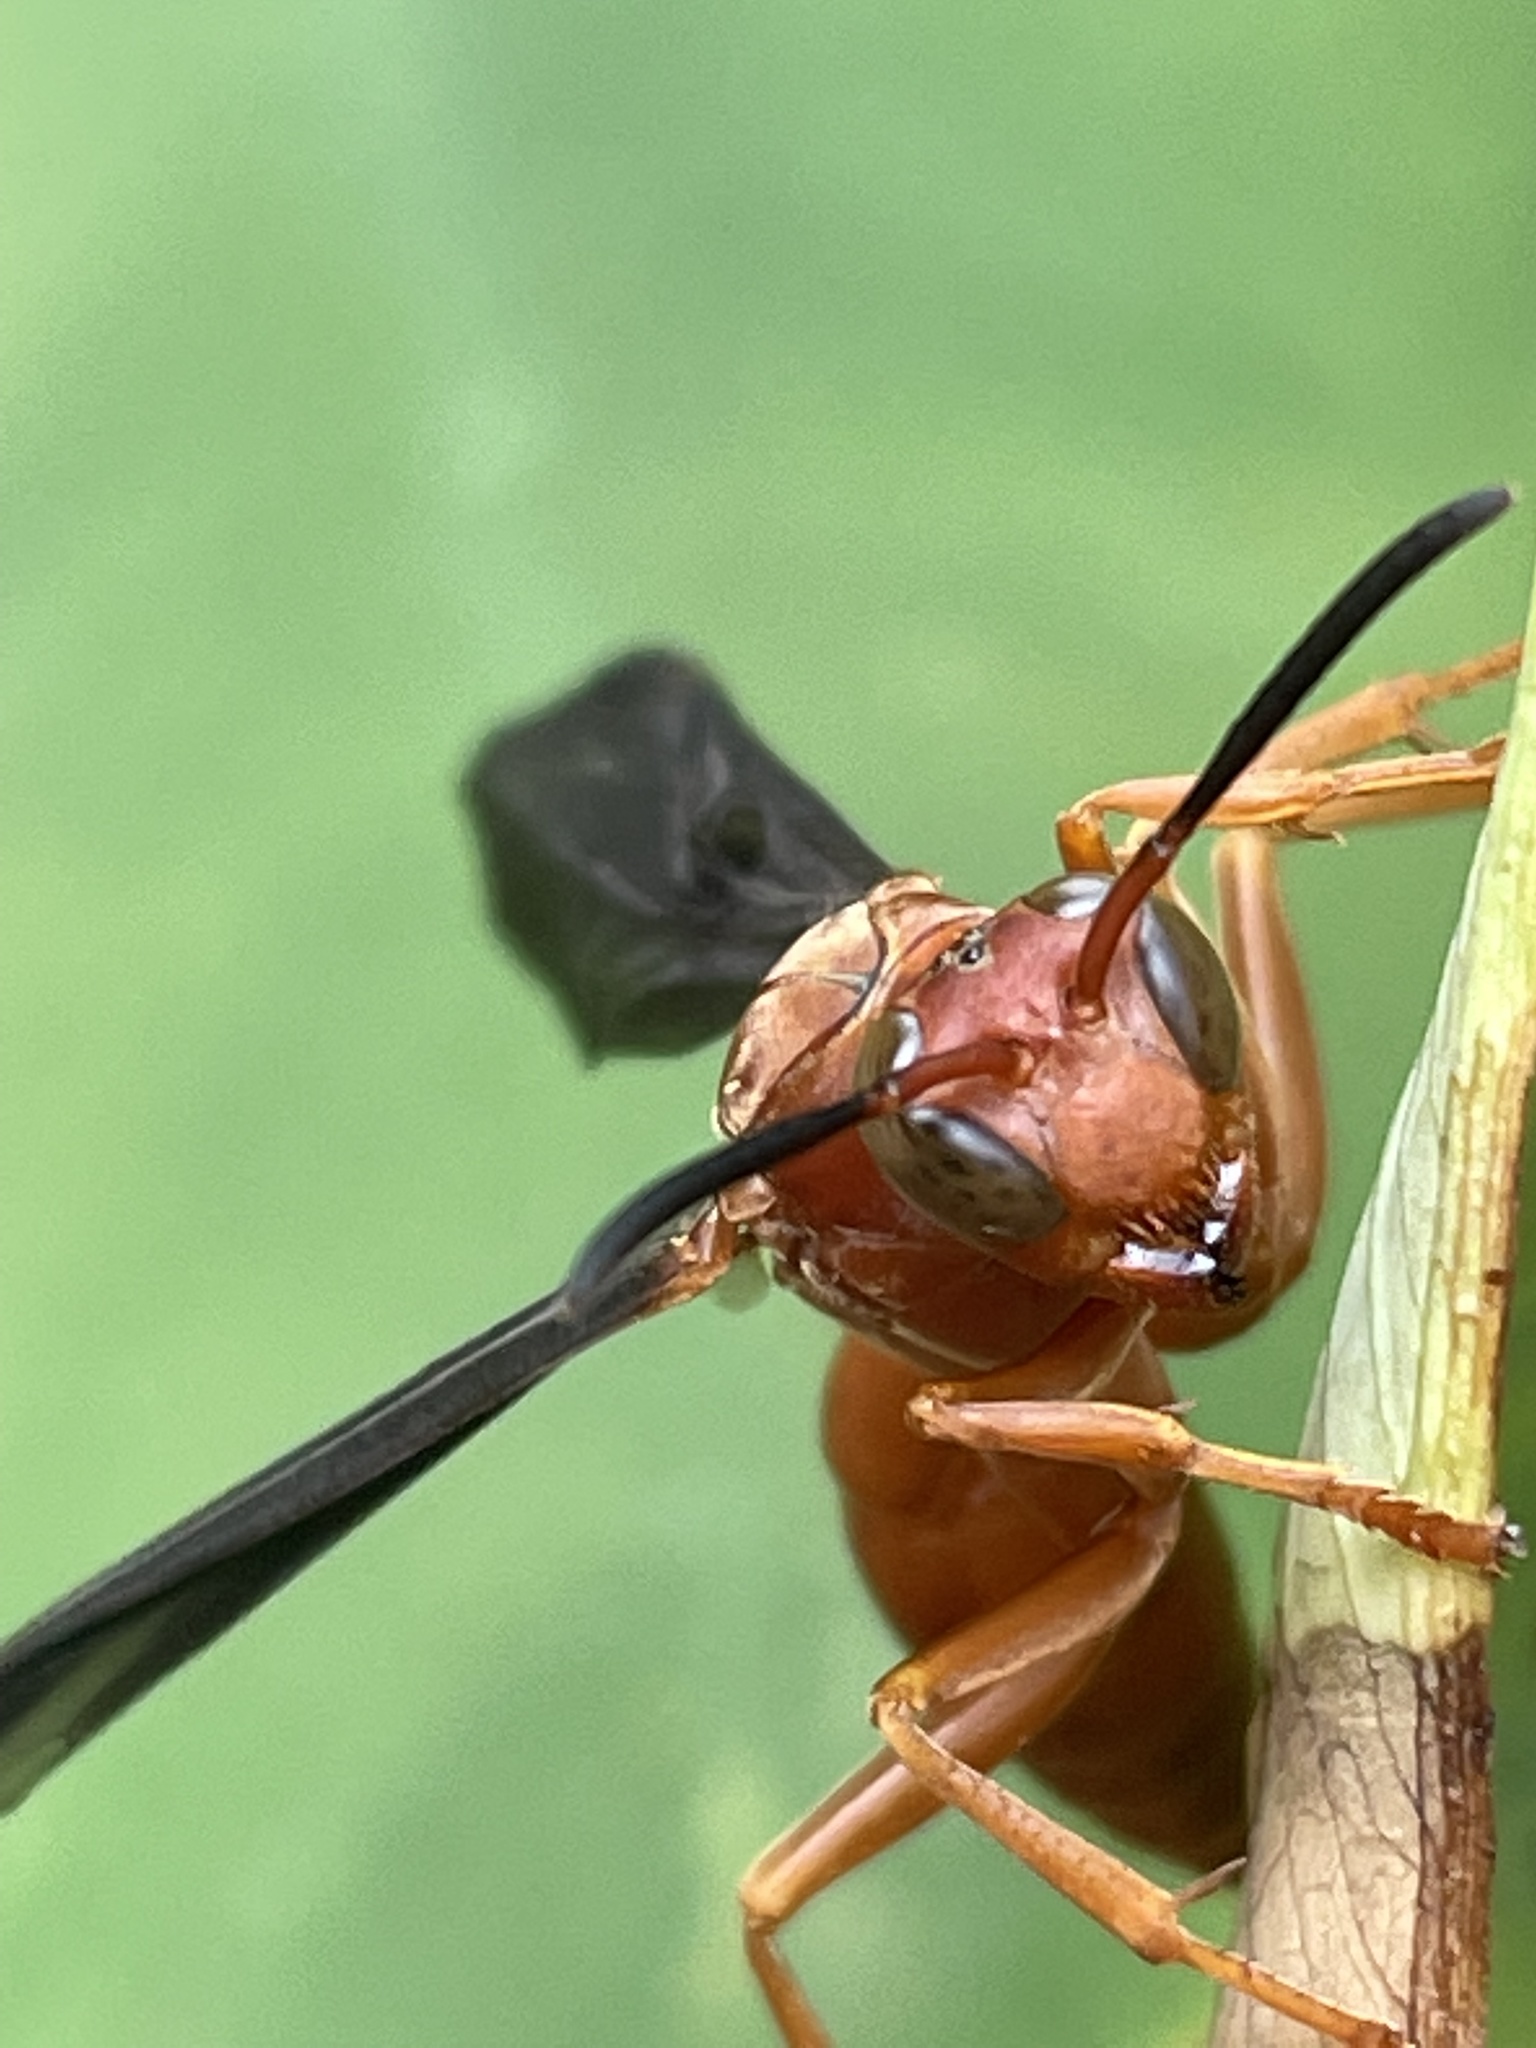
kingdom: Animalia
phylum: Arthropoda
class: Insecta
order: Hymenoptera
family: Eumenidae
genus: Polistes
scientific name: Polistes carolina
